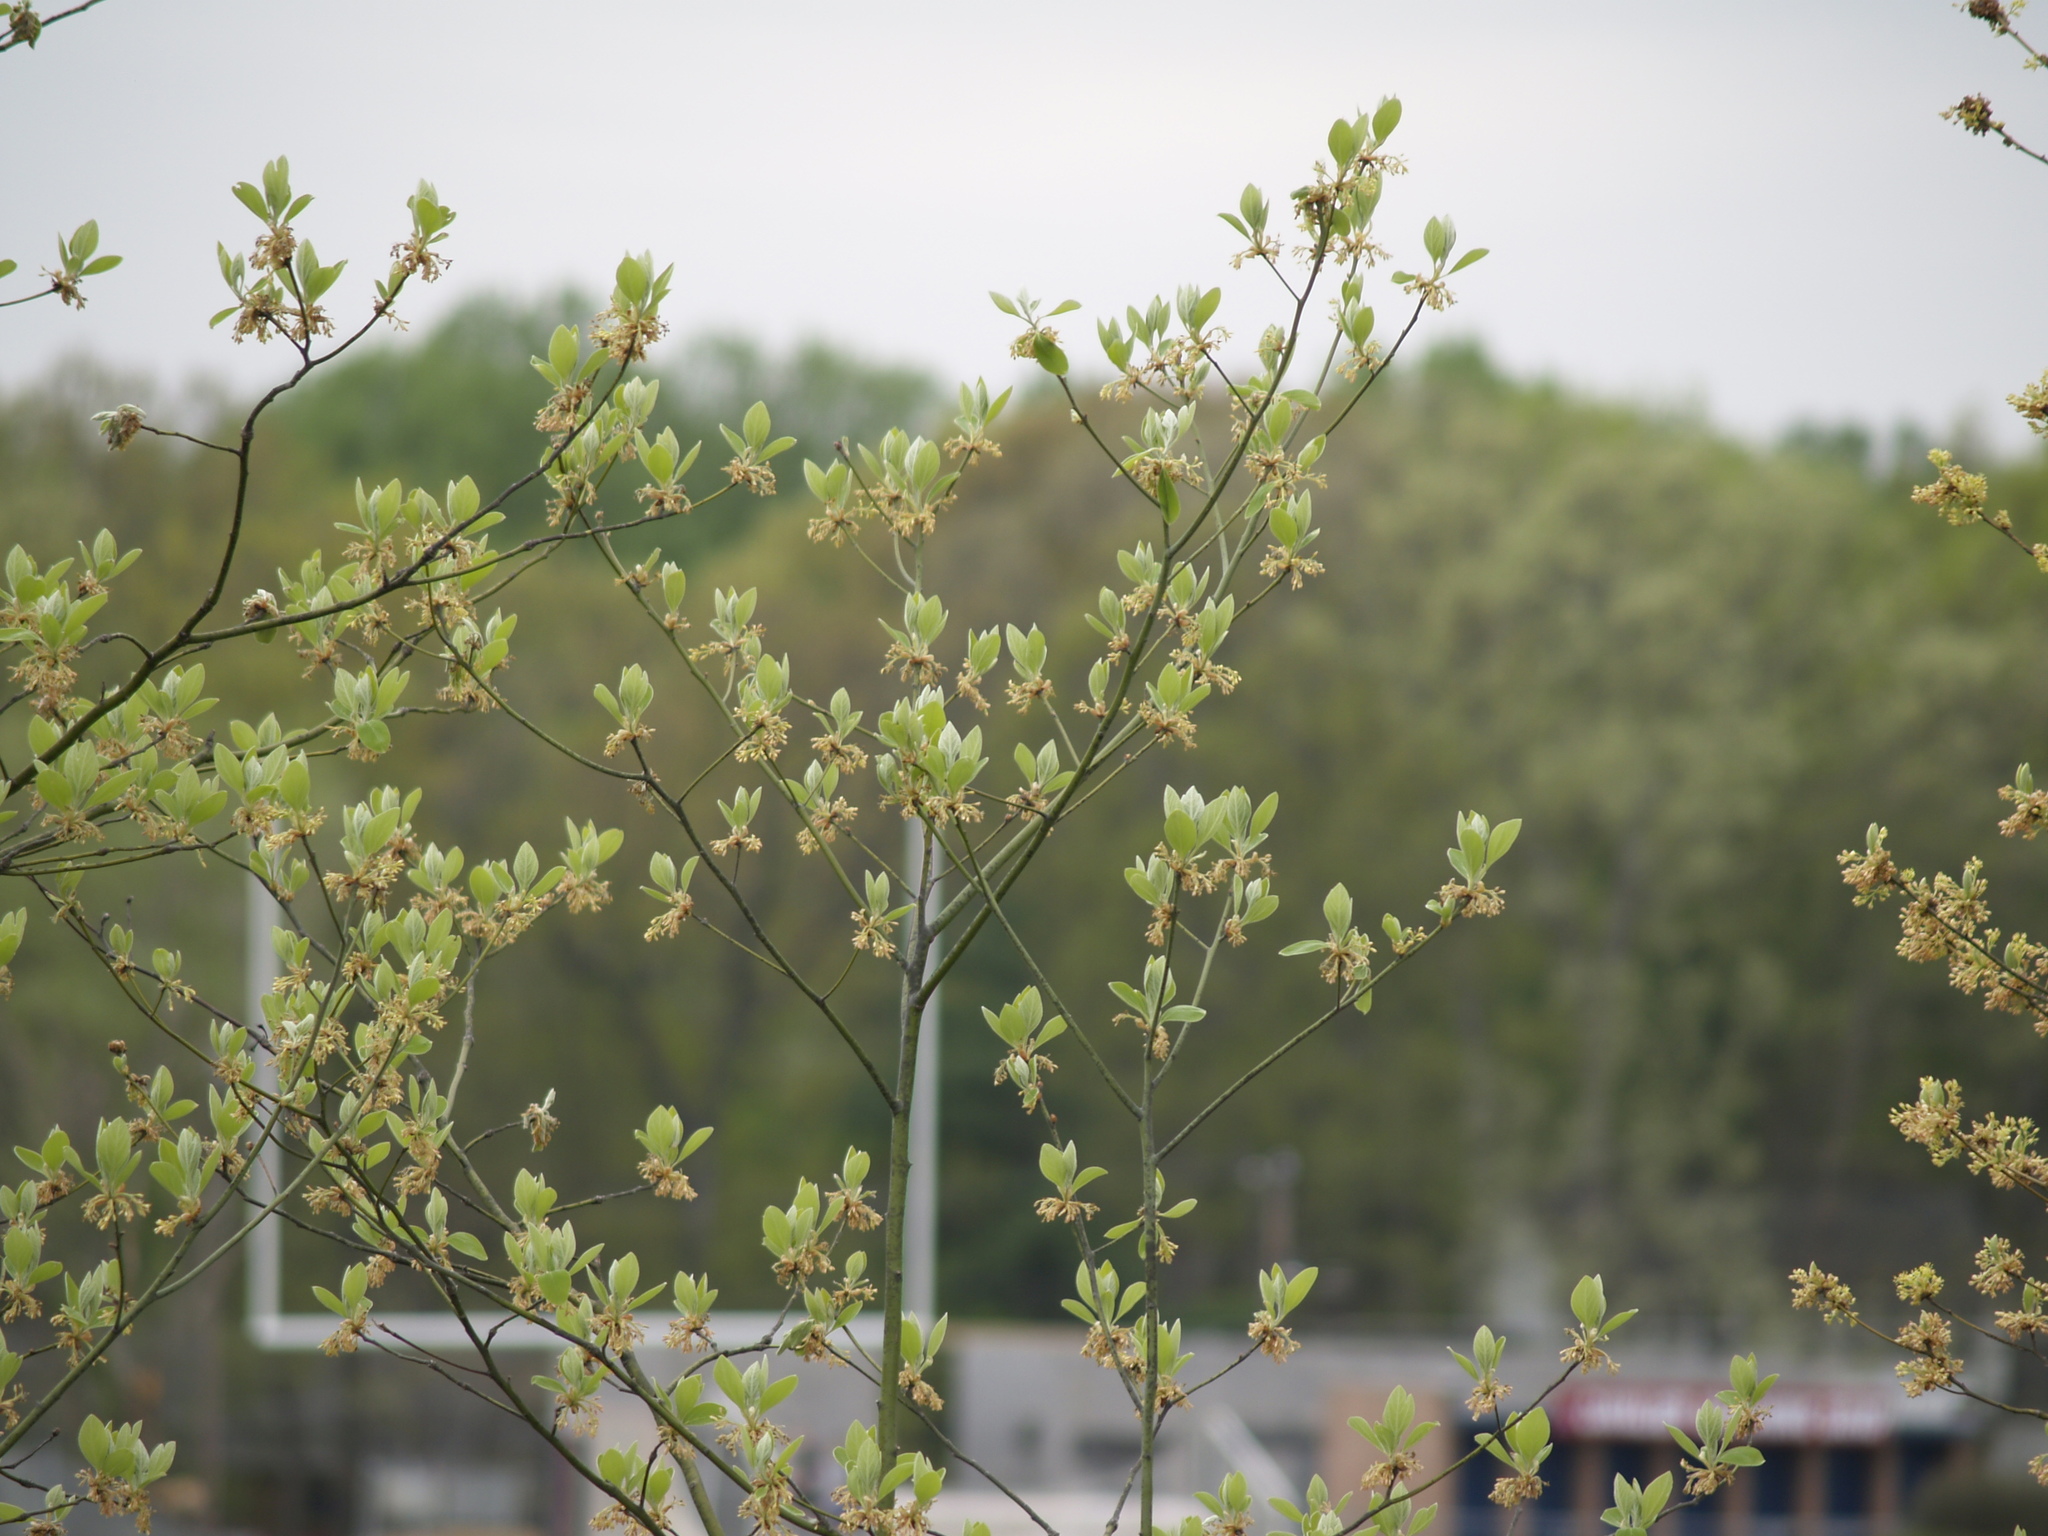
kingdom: Plantae
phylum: Tracheophyta
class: Magnoliopsida
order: Laurales
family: Lauraceae
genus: Sassafras
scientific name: Sassafras albidum
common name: Sassafras
